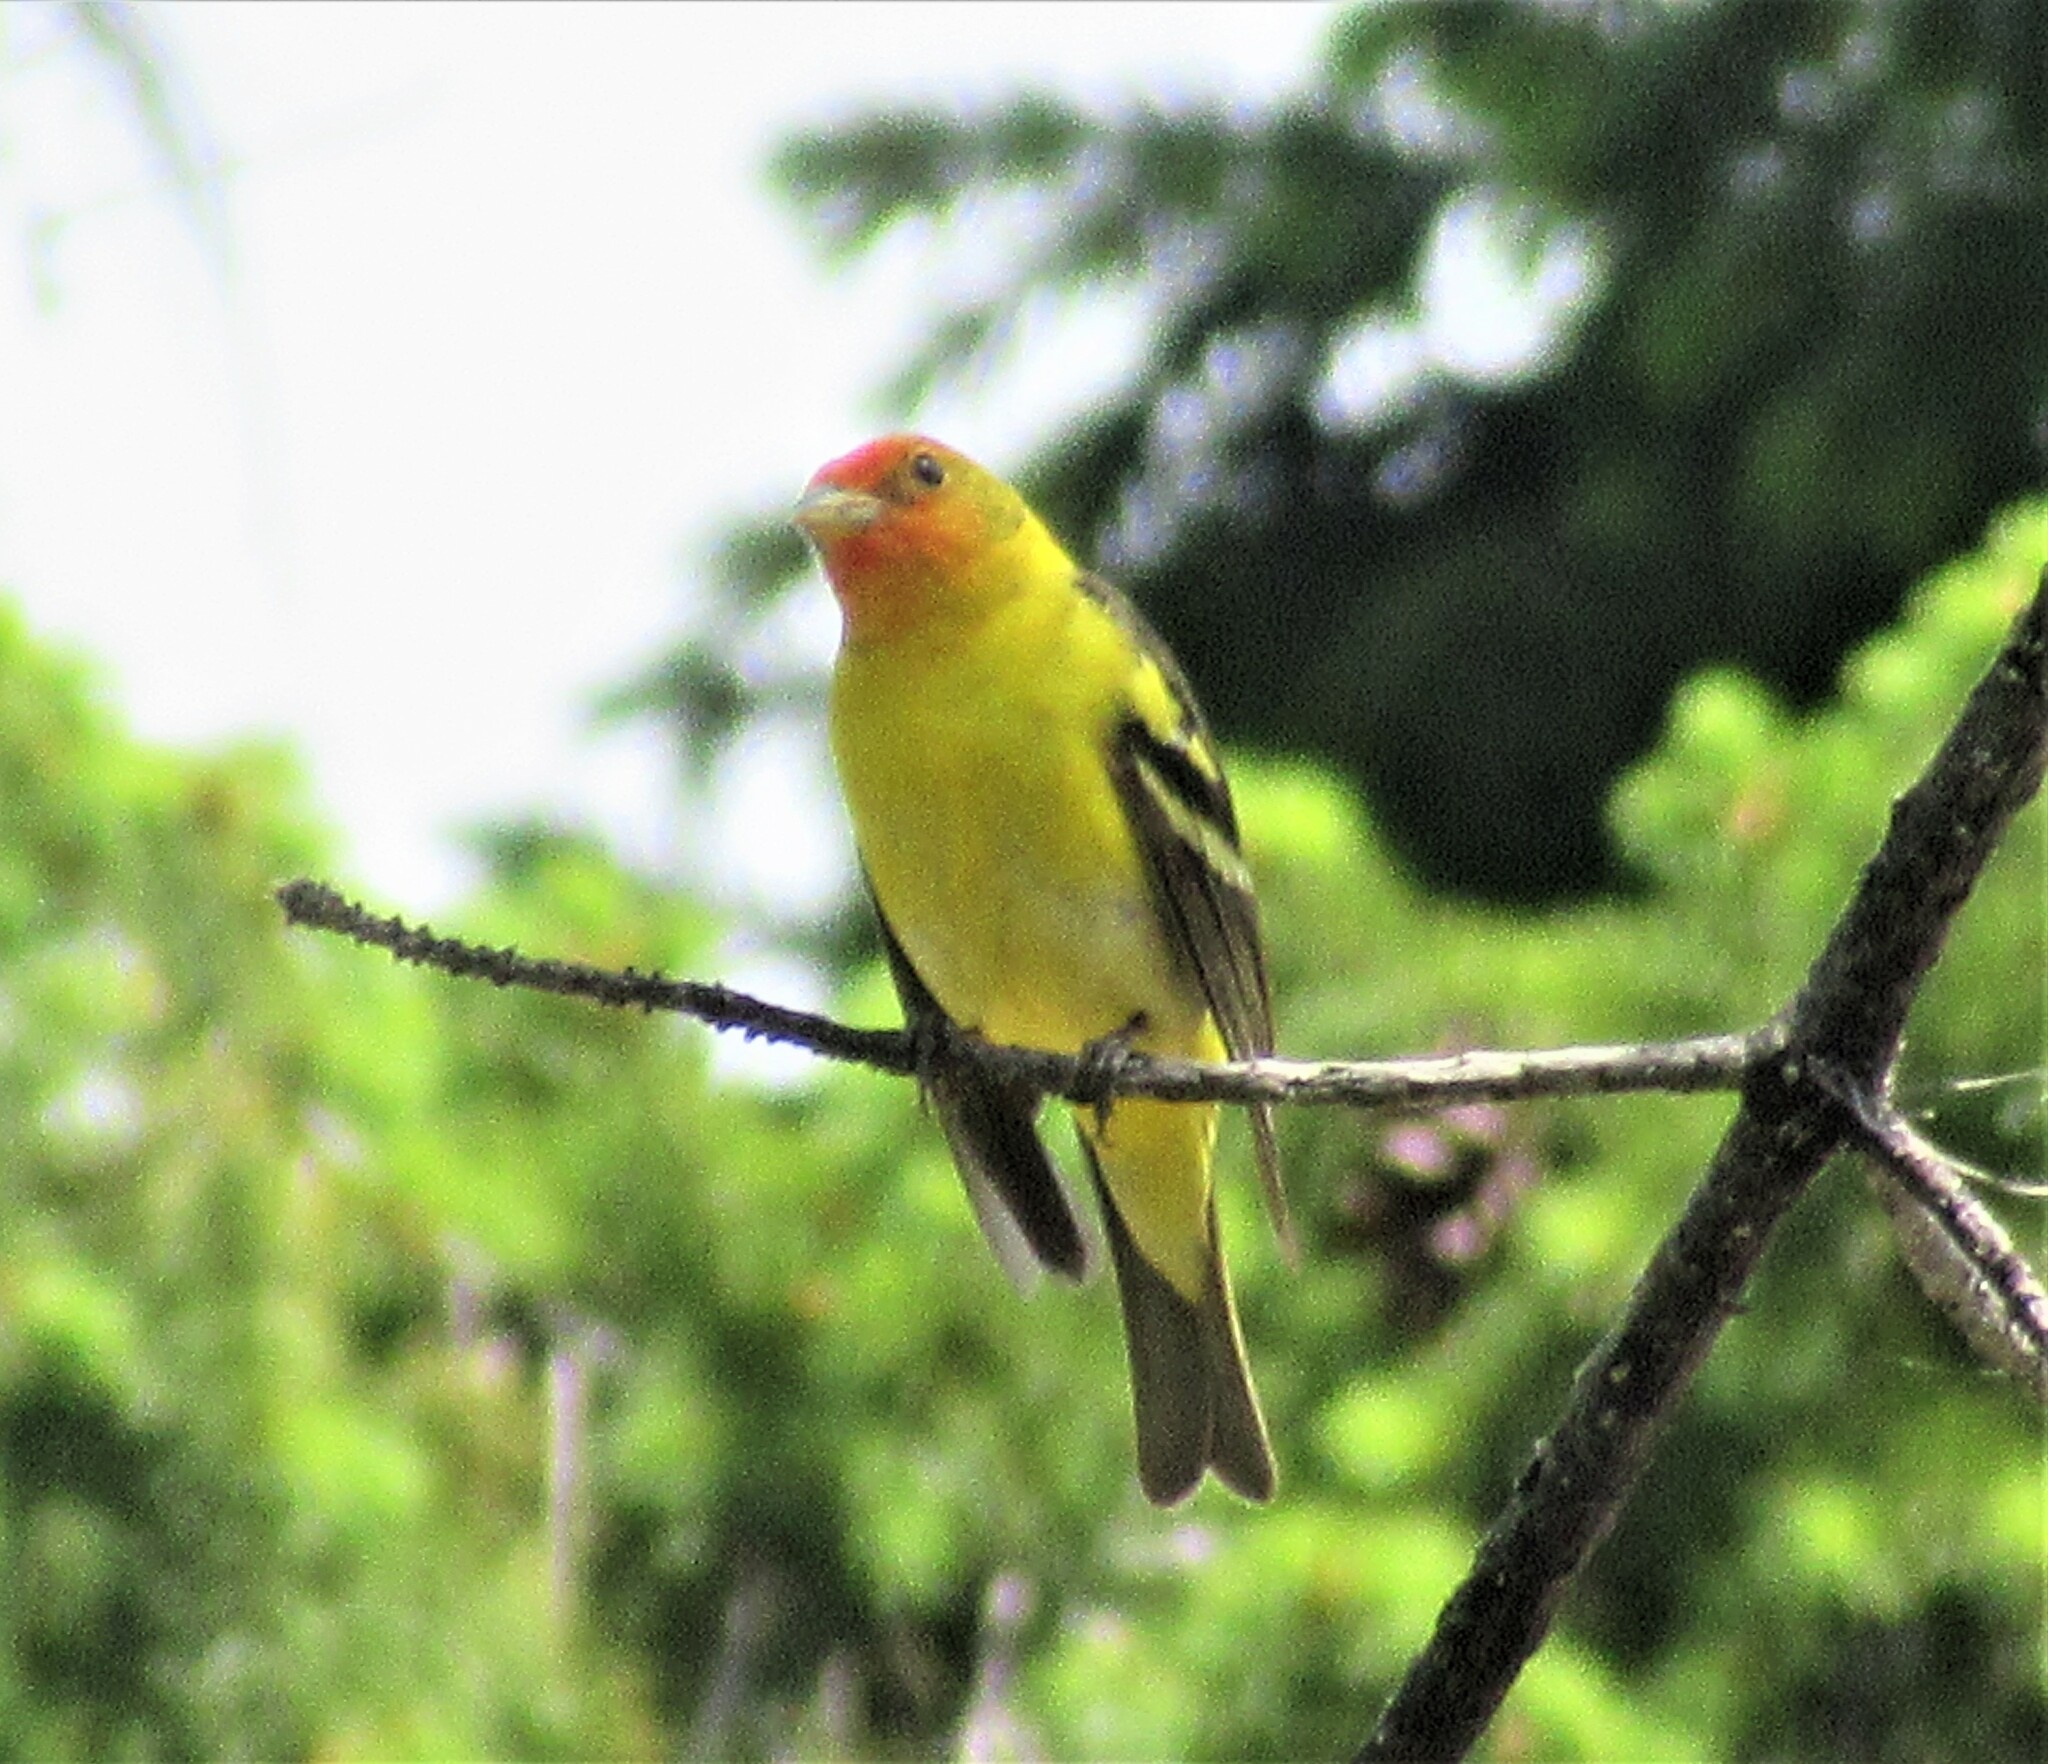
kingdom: Animalia
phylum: Chordata
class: Aves
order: Passeriformes
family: Cardinalidae
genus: Piranga
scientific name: Piranga ludoviciana
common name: Western tanager
